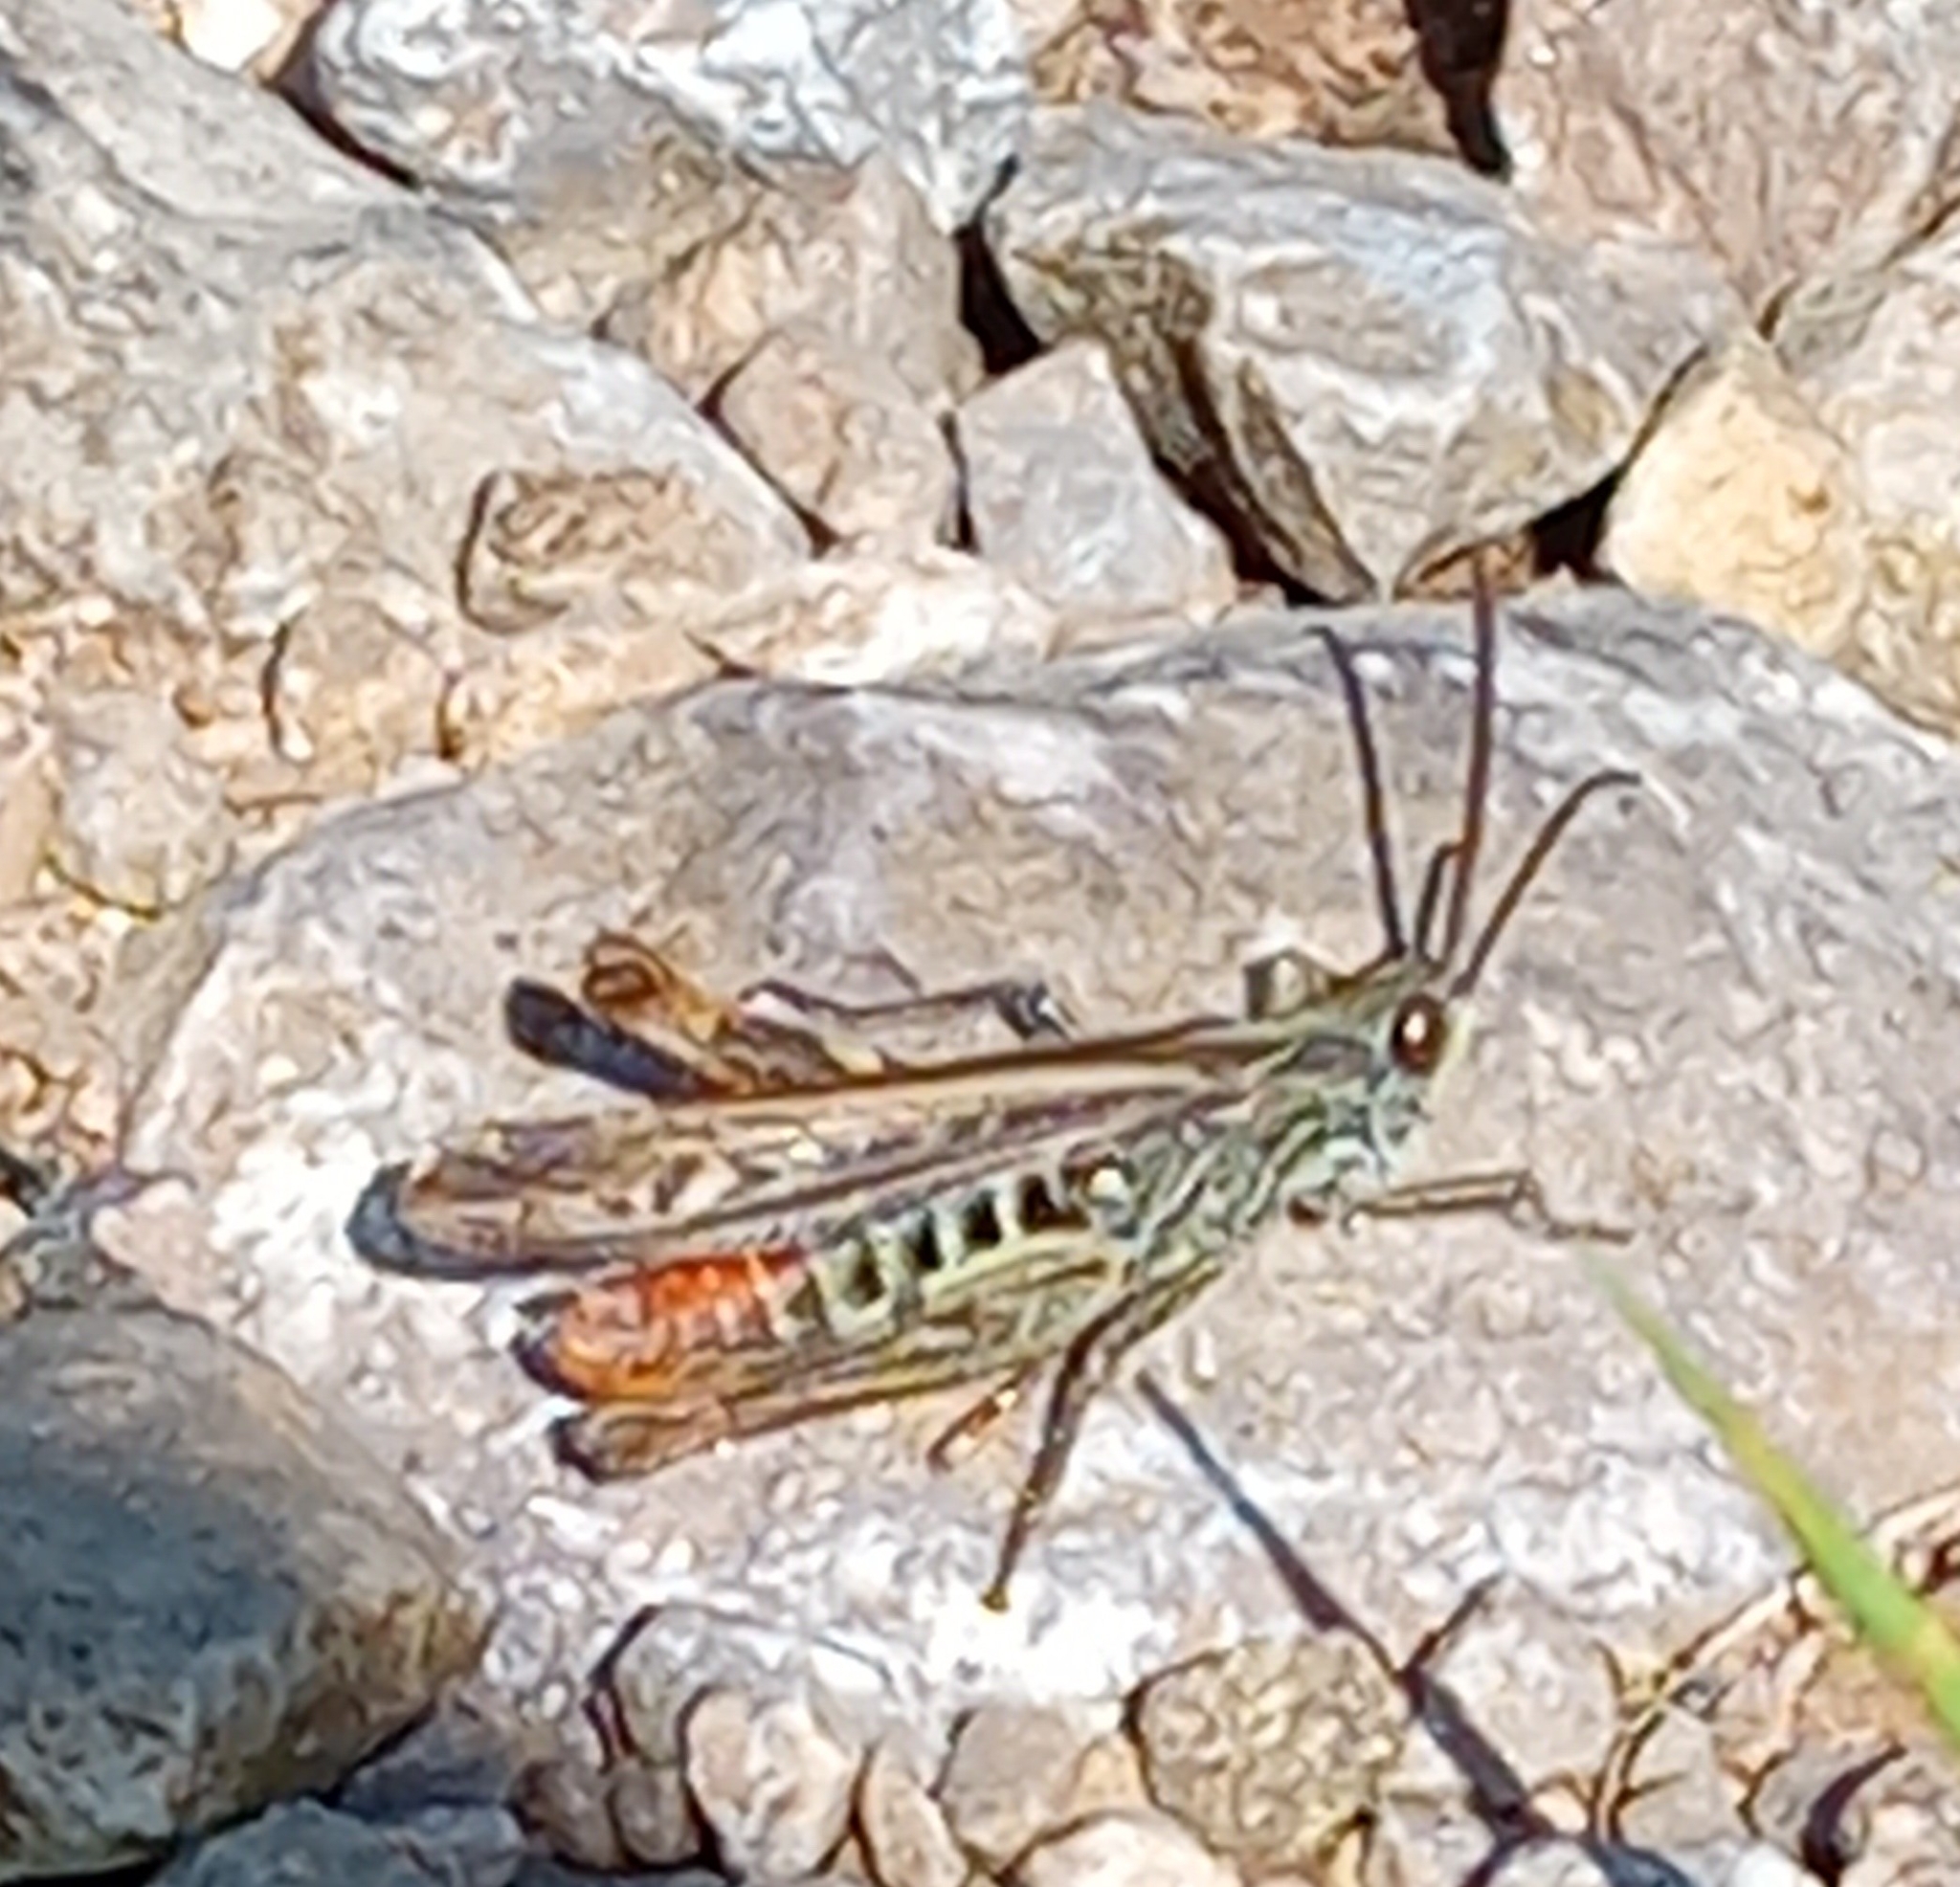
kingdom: Animalia
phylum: Arthropoda
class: Insecta
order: Orthoptera
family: Acrididae
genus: Chorthippus
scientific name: Chorthippus brunneus
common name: Field grasshopper
